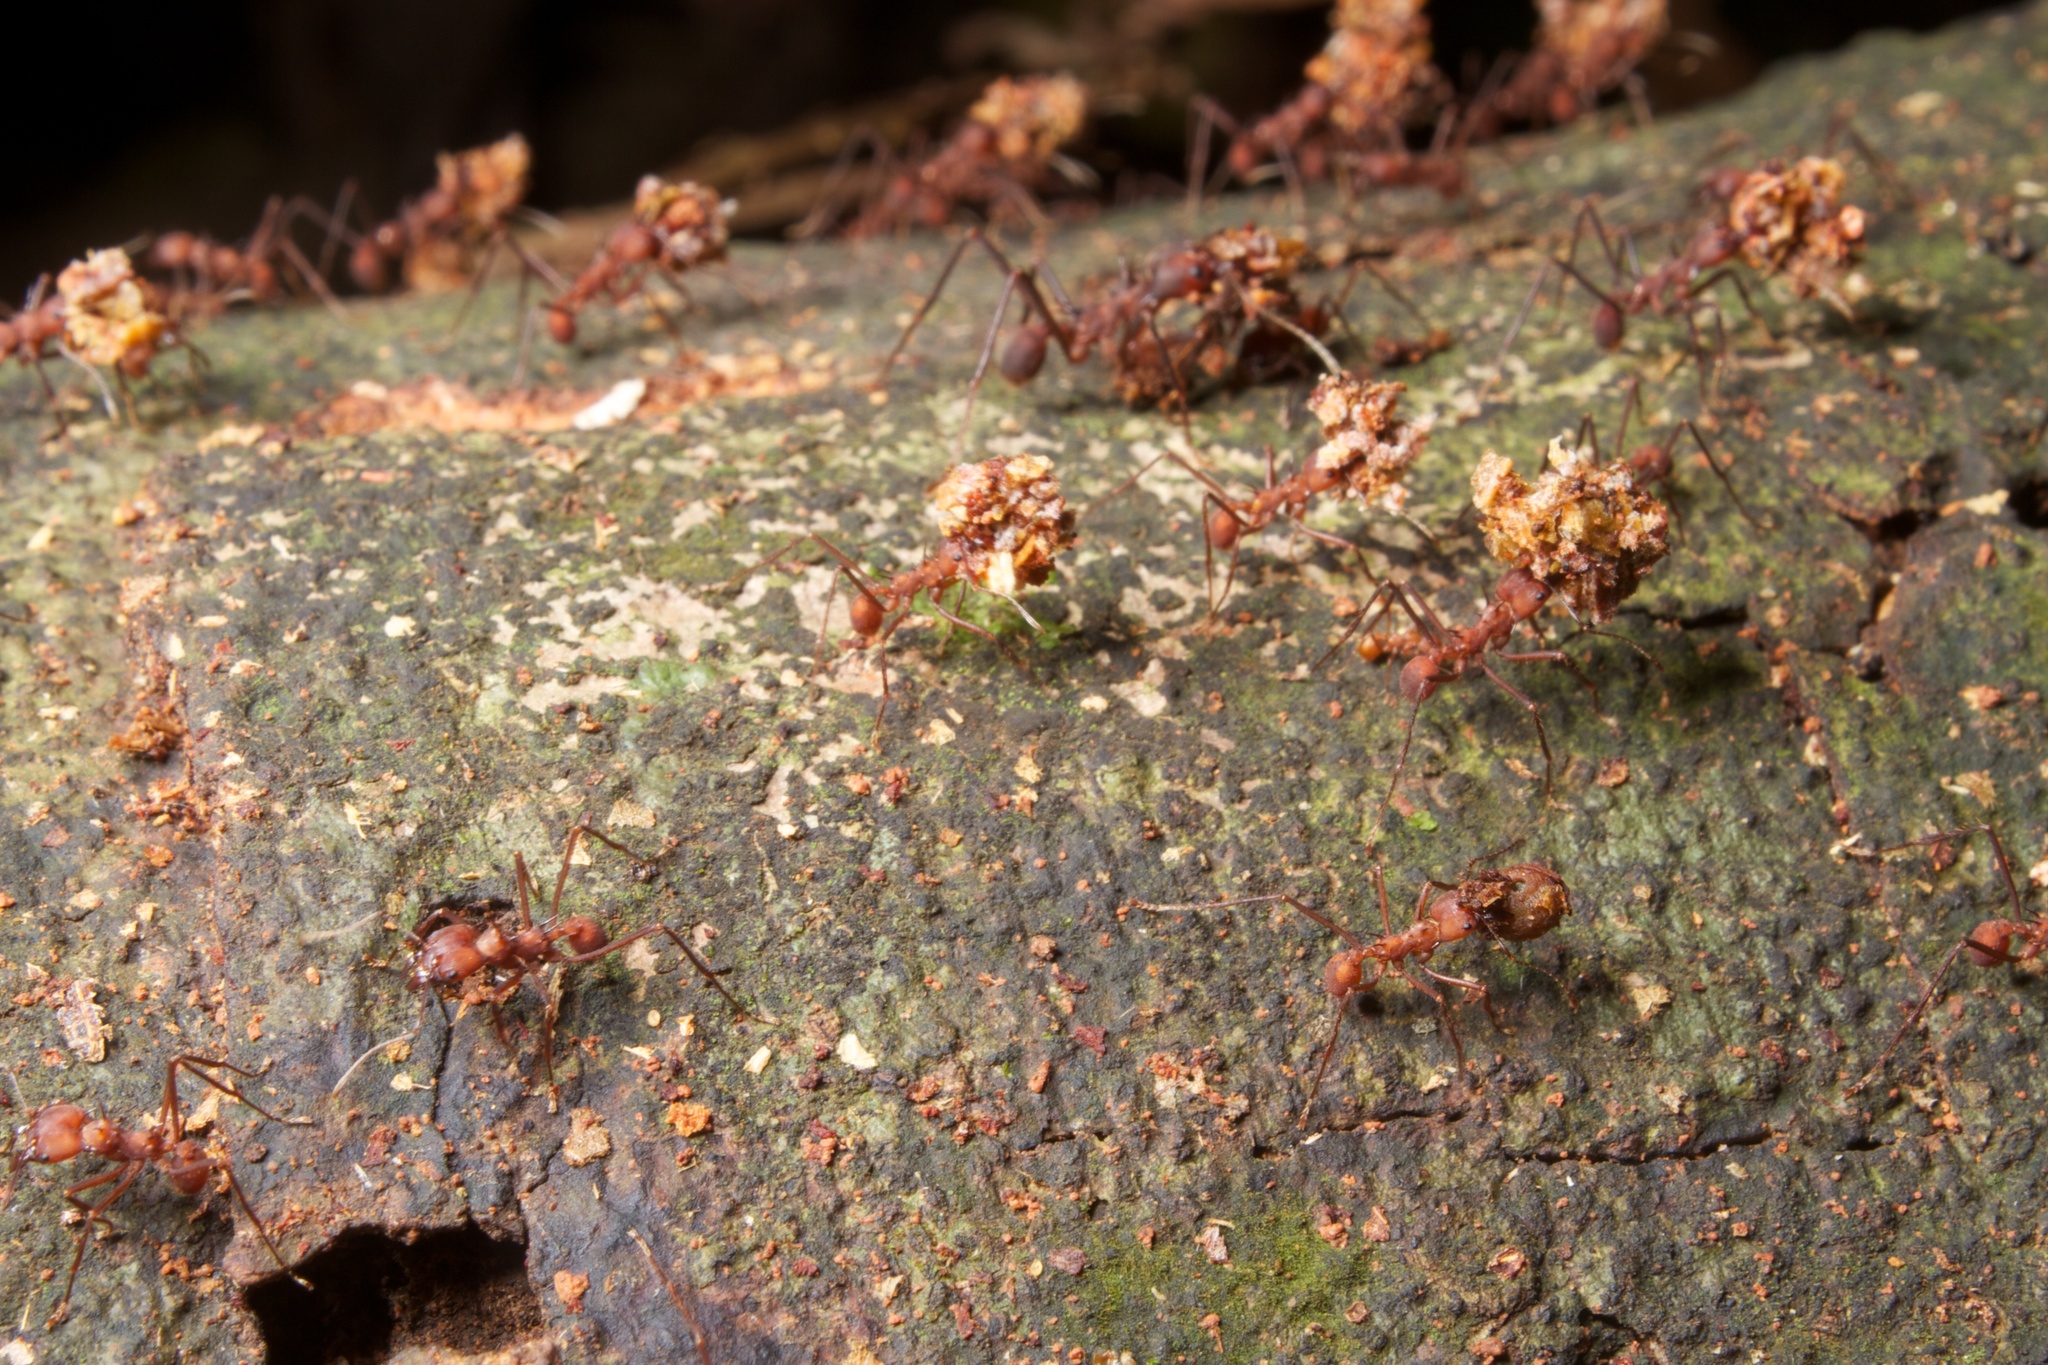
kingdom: Animalia
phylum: Arthropoda
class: Insecta
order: Hymenoptera
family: Formicidae
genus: Atta
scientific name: Atta colombica
